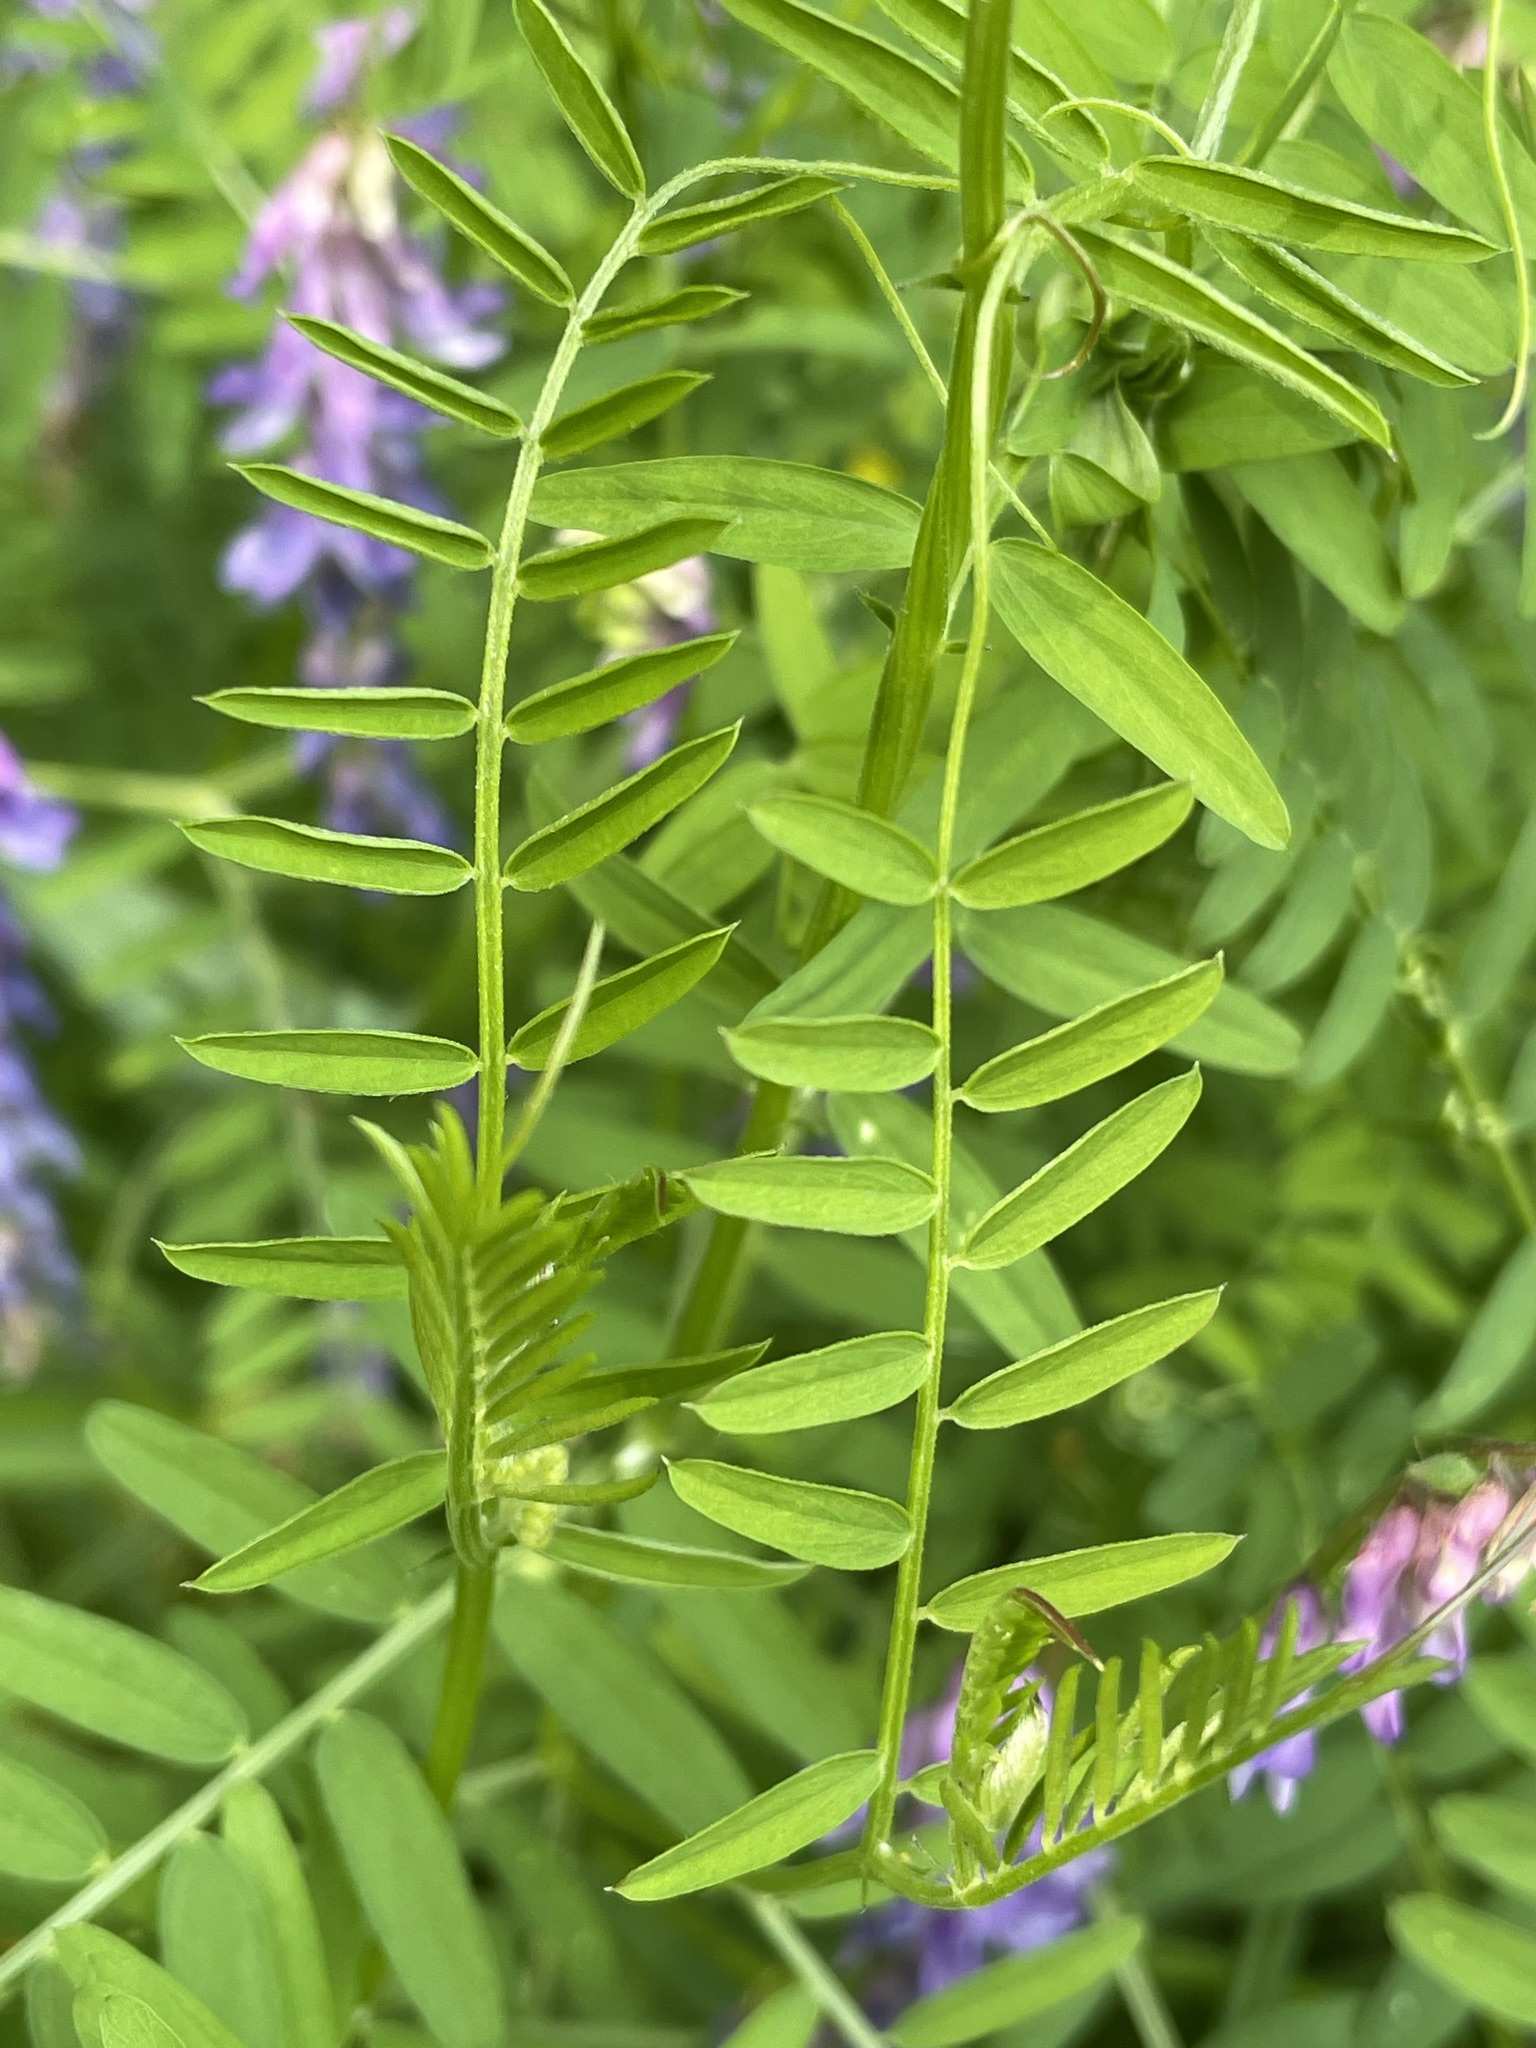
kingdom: Plantae
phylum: Tracheophyta
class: Magnoliopsida
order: Fabales
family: Fabaceae
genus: Vicia
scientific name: Vicia cracca
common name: Bird vetch
